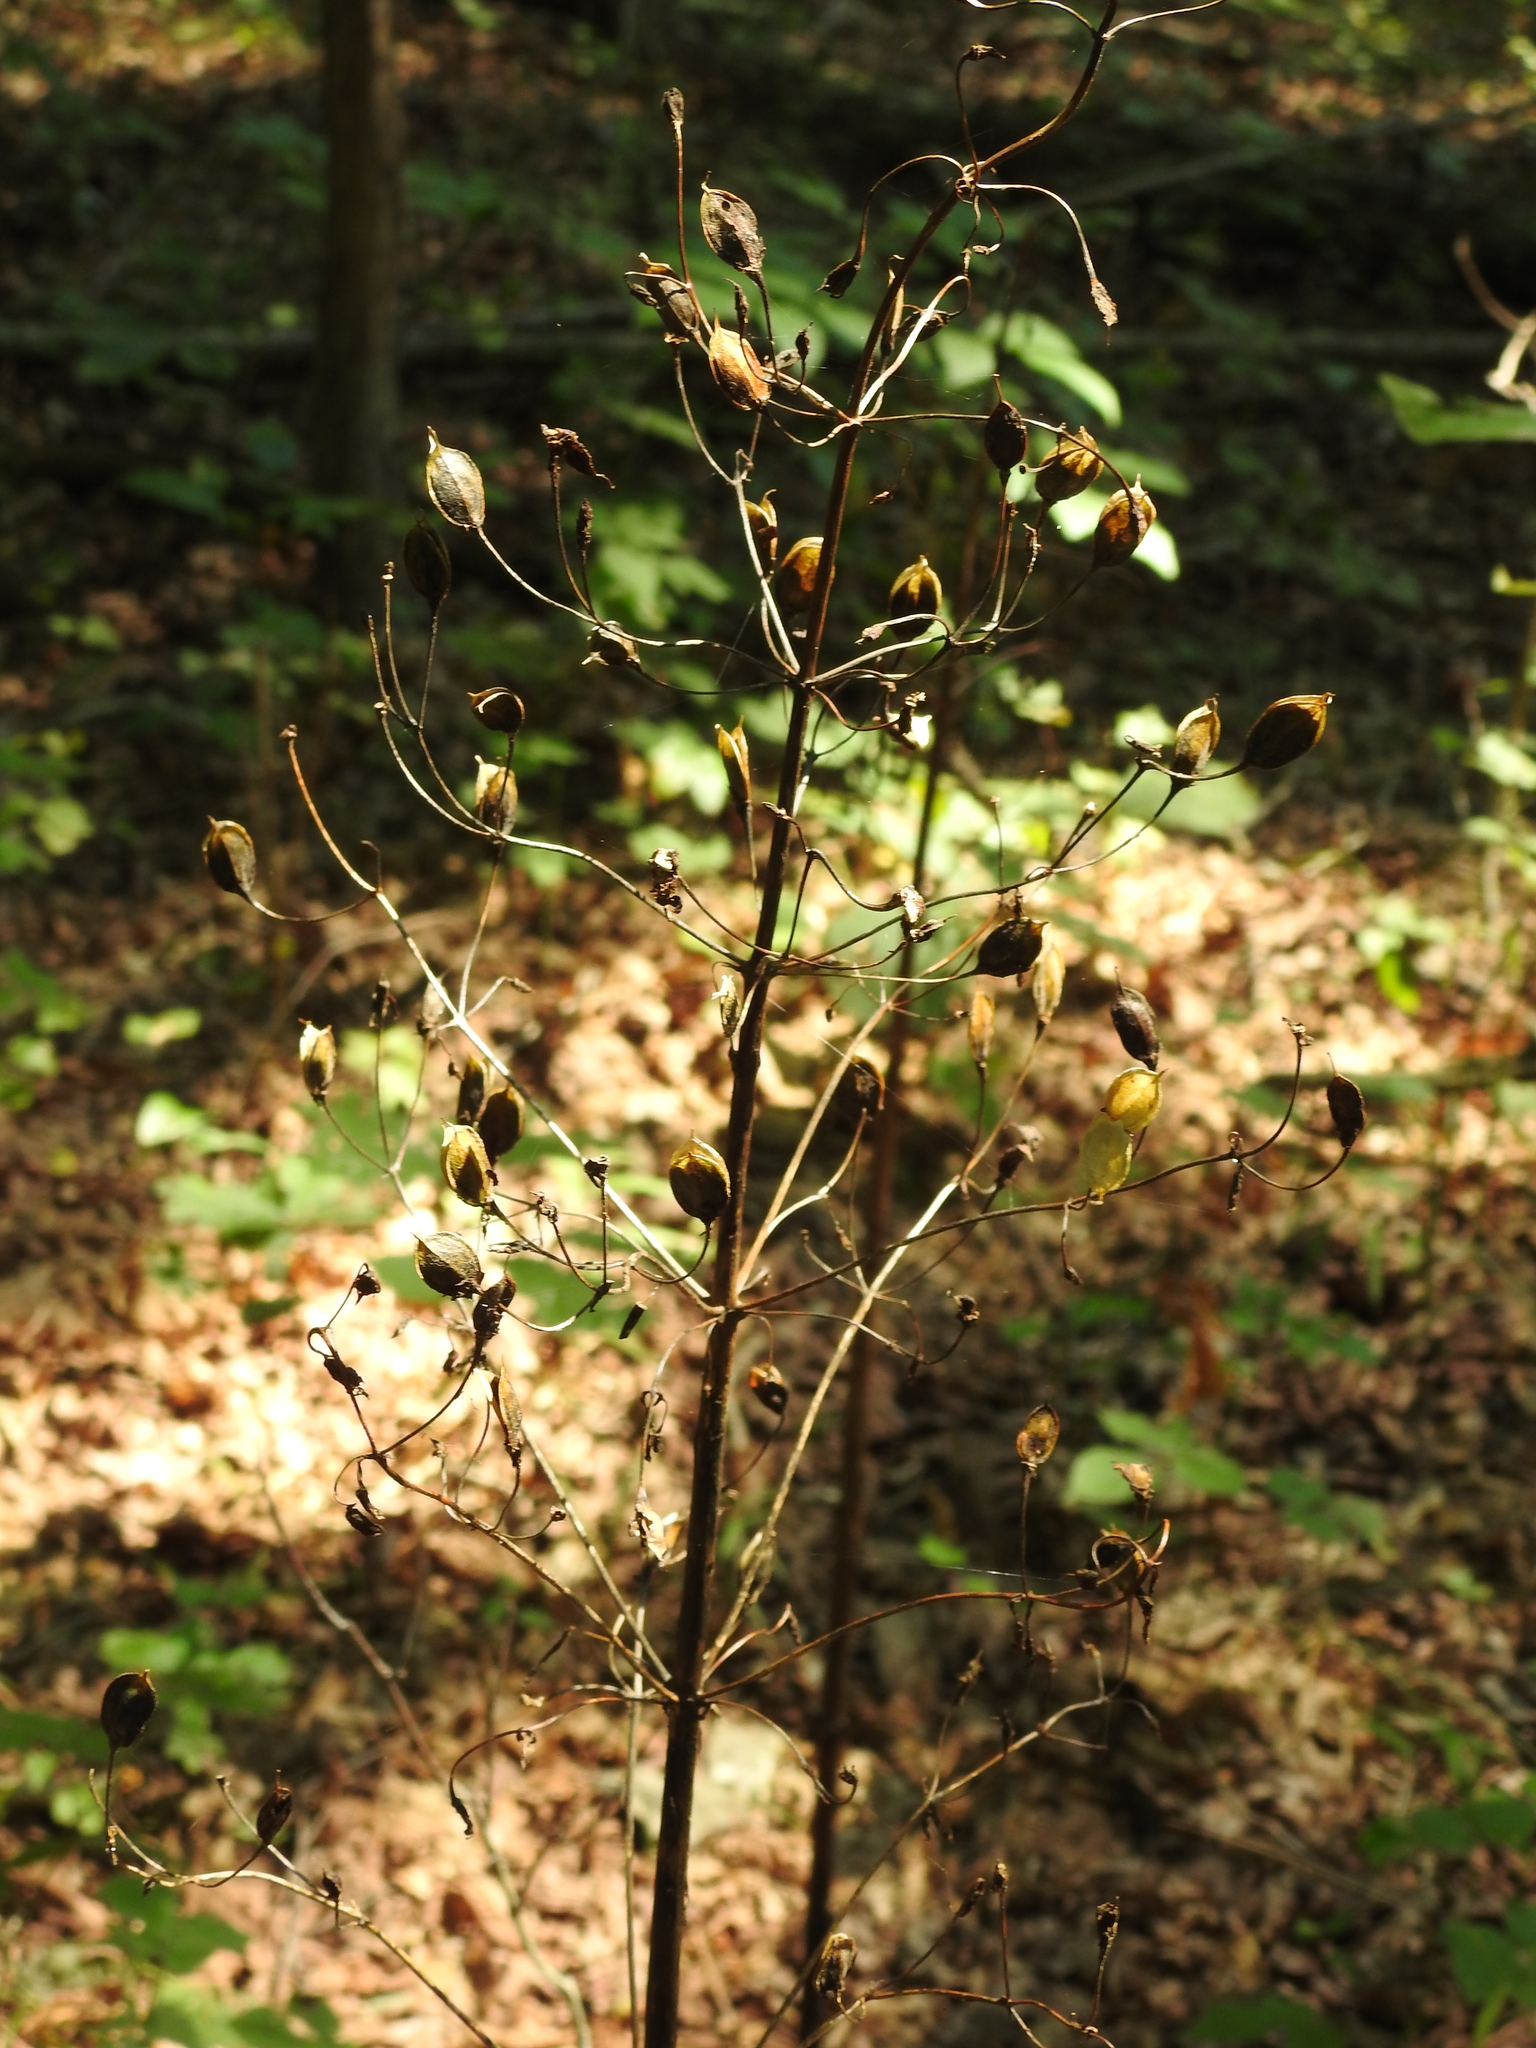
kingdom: Plantae
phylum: Tracheophyta
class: Magnoliopsida
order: Gentianales
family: Gentianaceae
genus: Frasera
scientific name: Frasera caroliniensis
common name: American columbo
